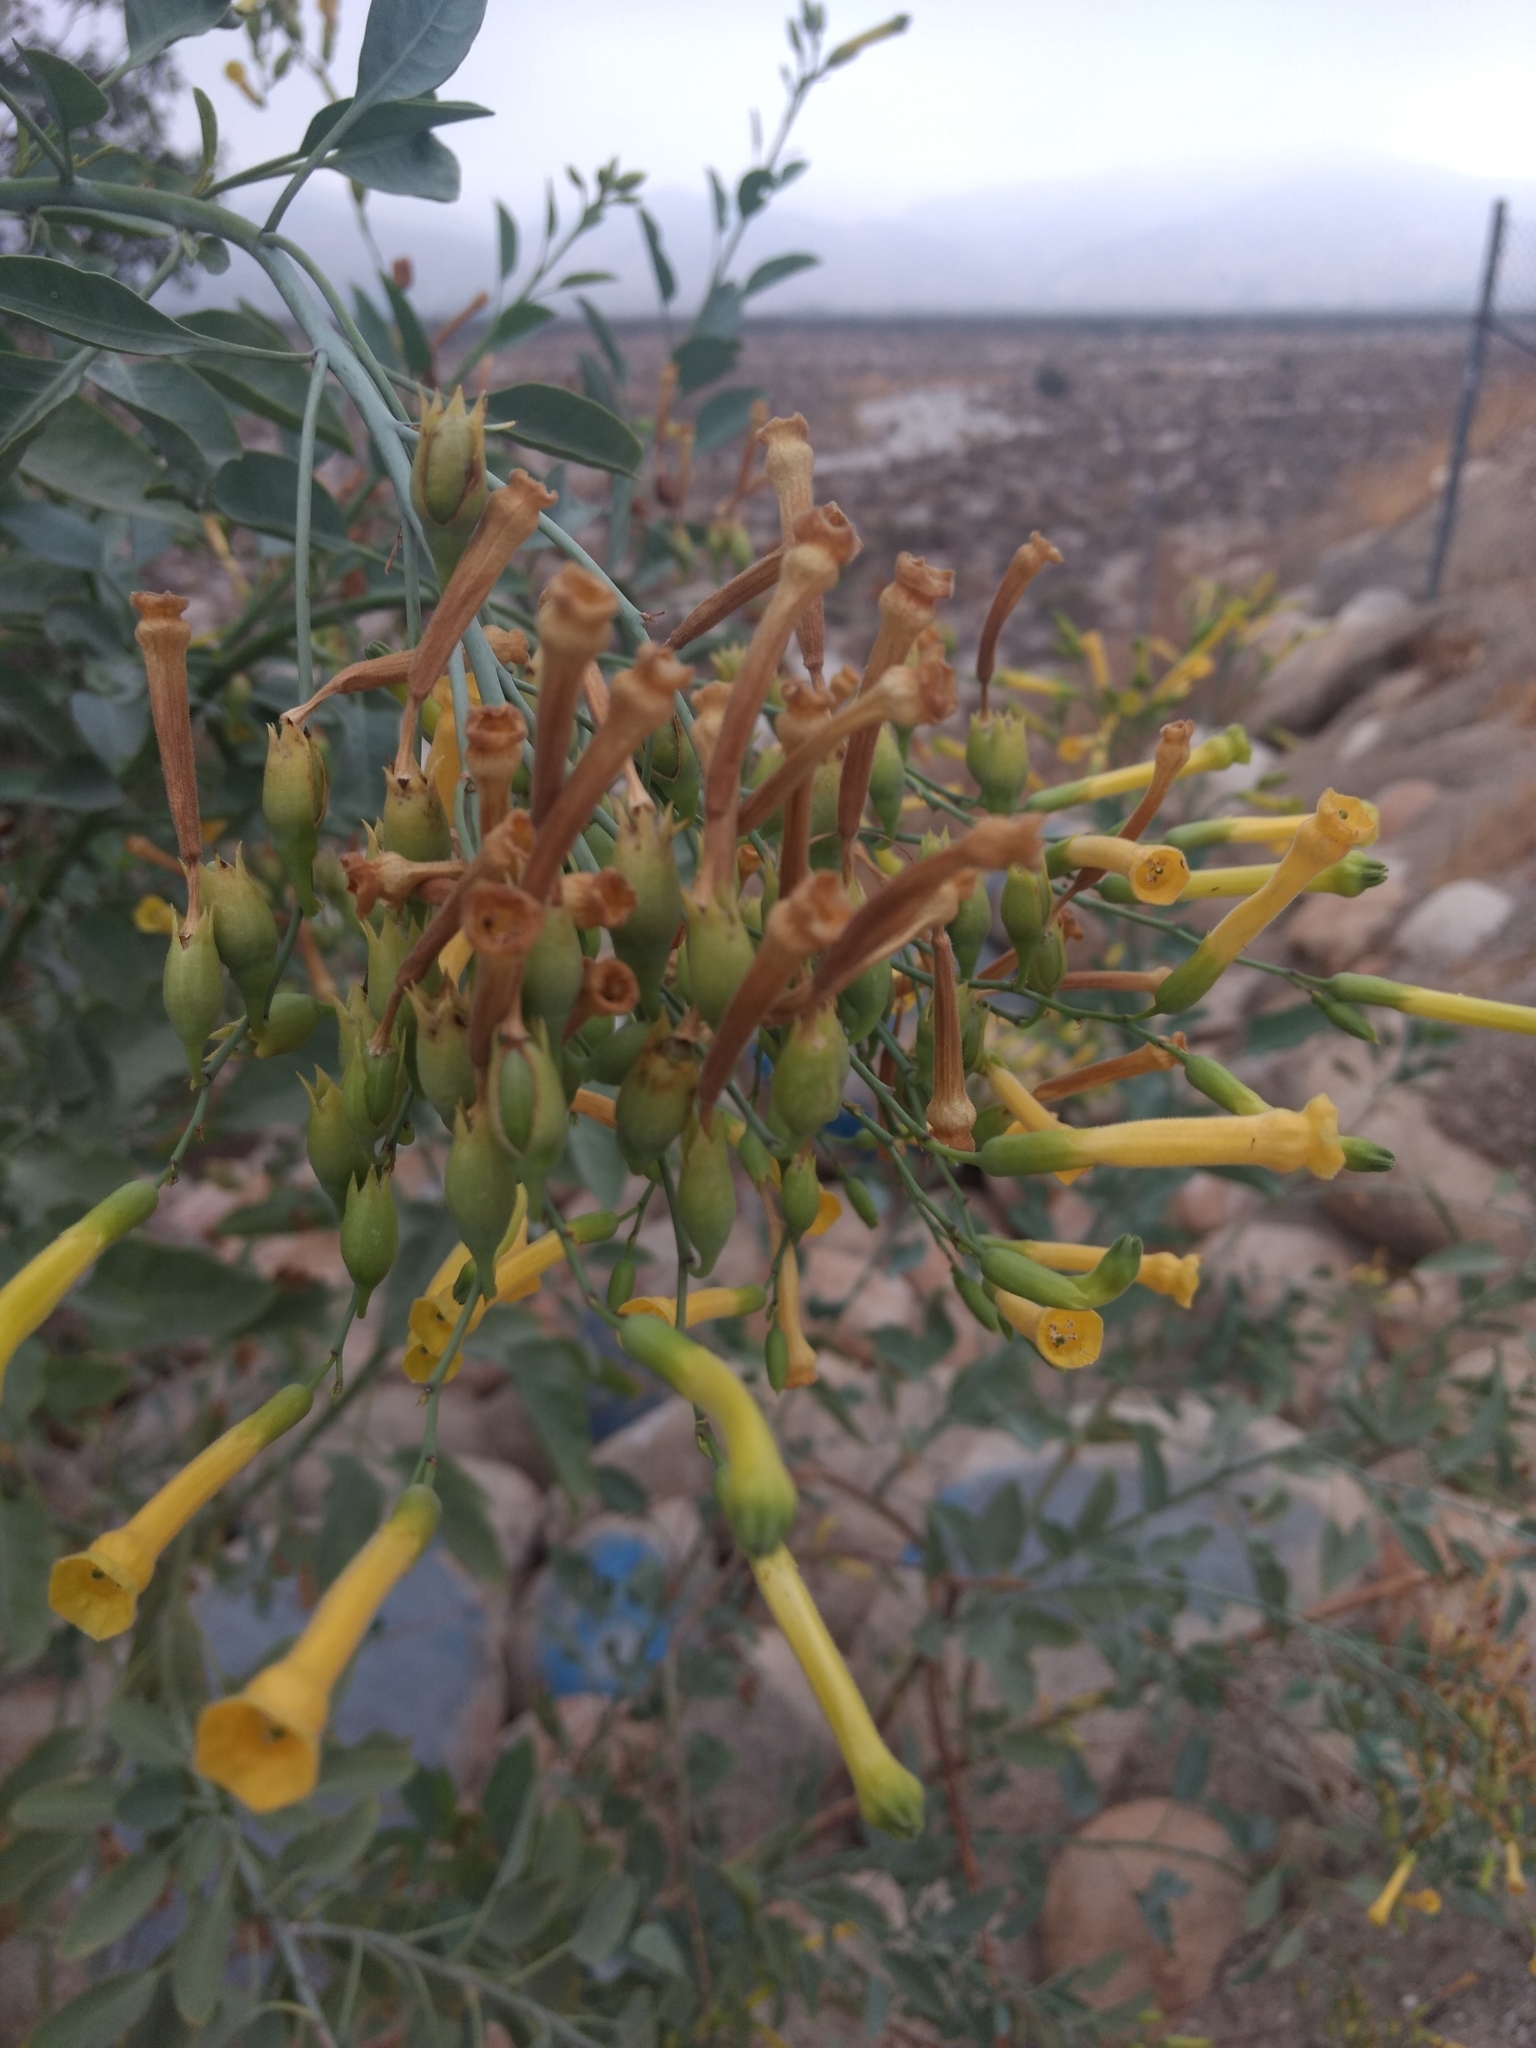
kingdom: Plantae
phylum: Tracheophyta
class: Magnoliopsida
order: Solanales
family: Solanaceae
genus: Nicotiana
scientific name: Nicotiana glauca
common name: Tree tobacco
